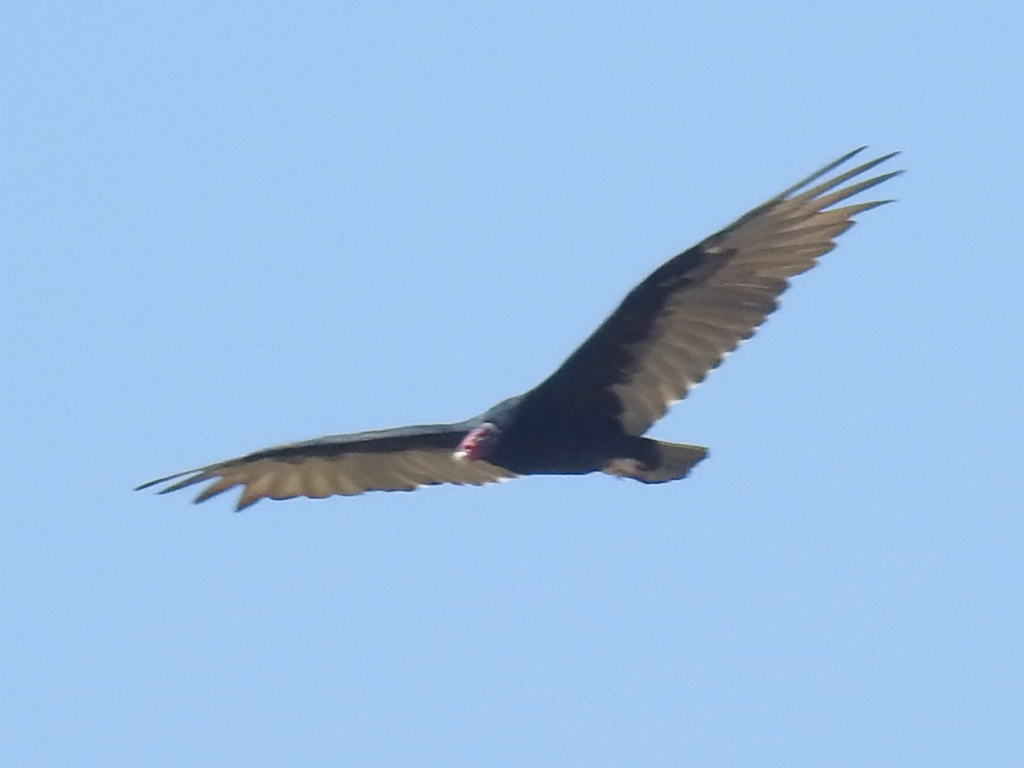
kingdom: Animalia
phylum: Chordata
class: Aves
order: Accipitriformes
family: Cathartidae
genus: Cathartes
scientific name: Cathartes aura
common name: Turkey vulture
